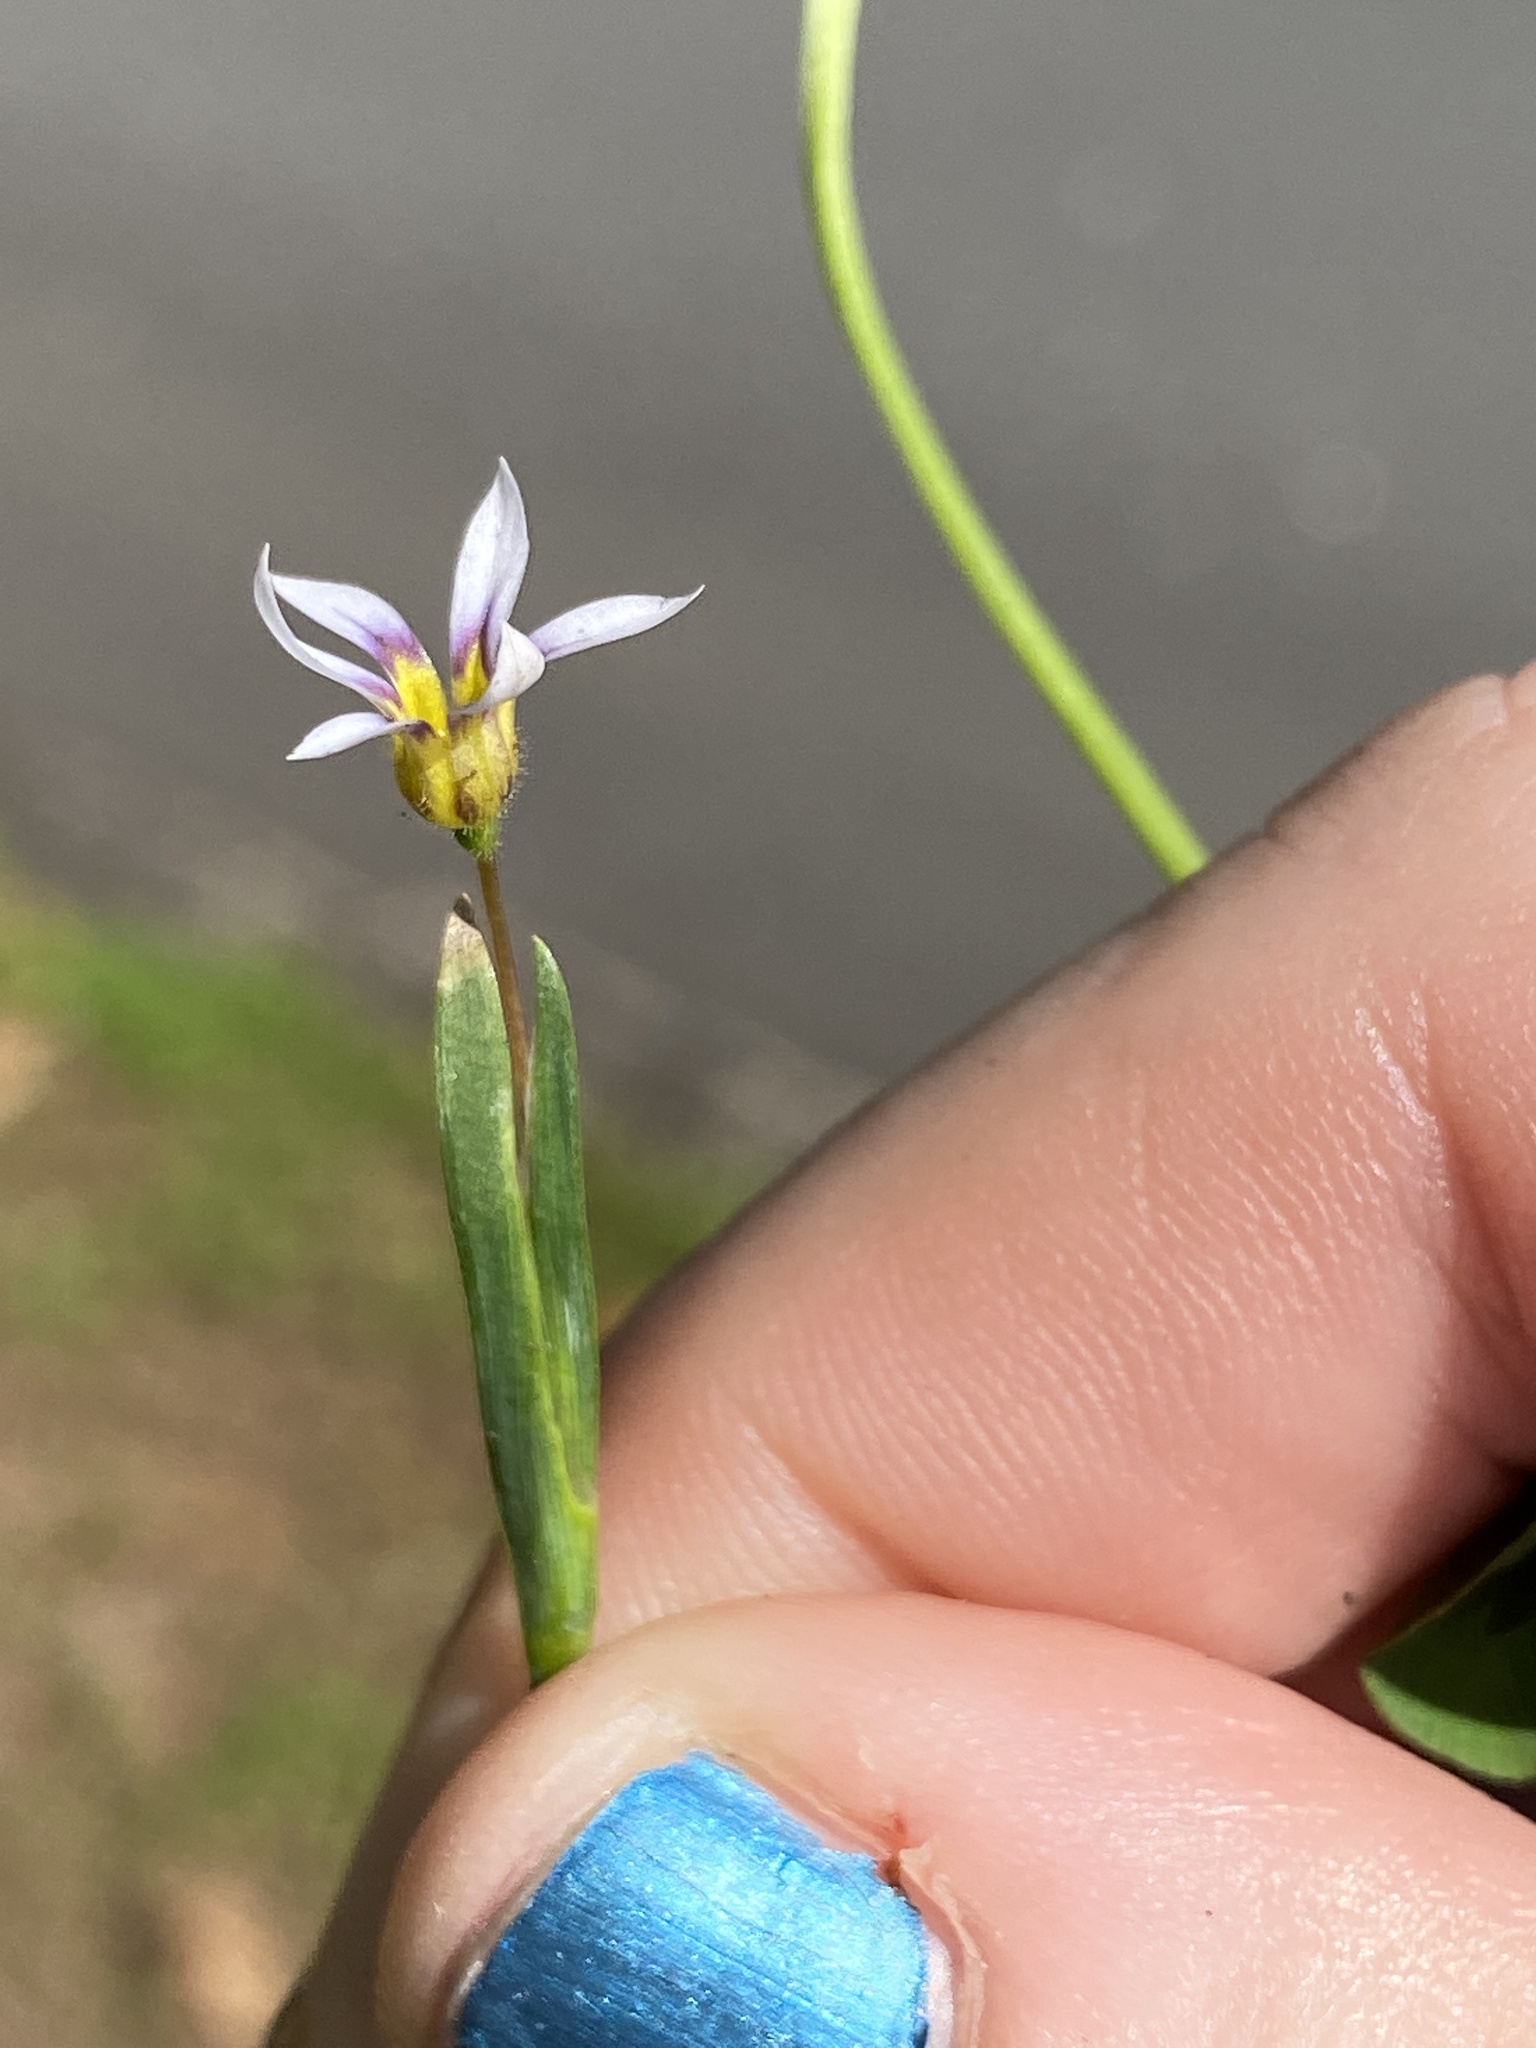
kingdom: Plantae
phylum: Tracheophyta
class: Liliopsida
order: Asparagales
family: Iridaceae
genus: Sisyrinchium
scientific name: Sisyrinchium micranthum
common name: Bermuda pigroot
